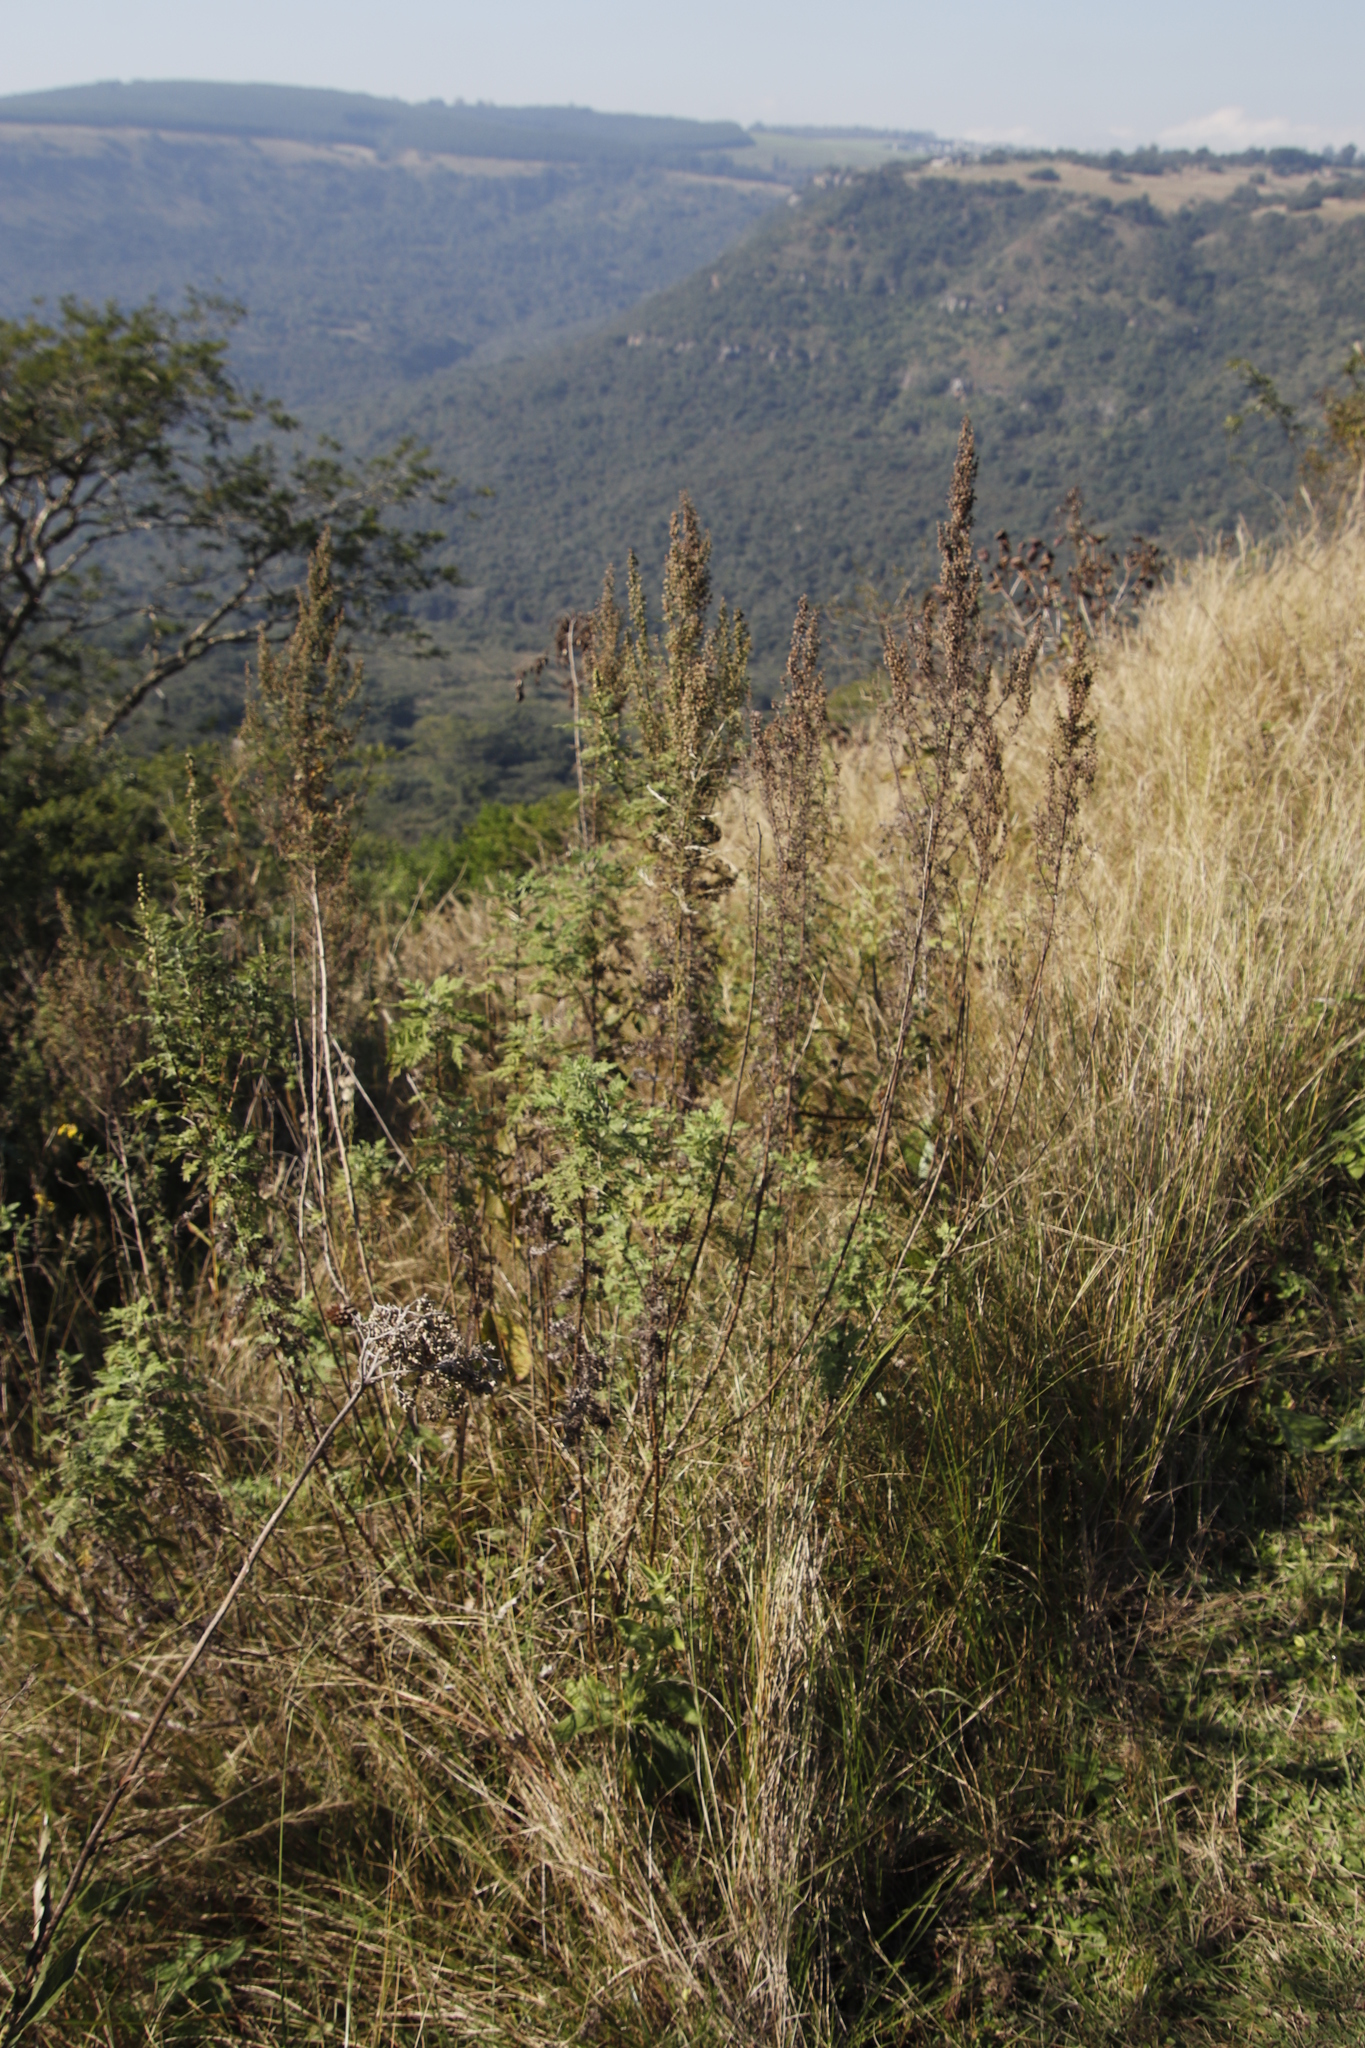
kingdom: Plantae
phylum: Tracheophyta
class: Magnoliopsida
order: Asterales
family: Asteraceae
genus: Artemisia
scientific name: Artemisia afra
